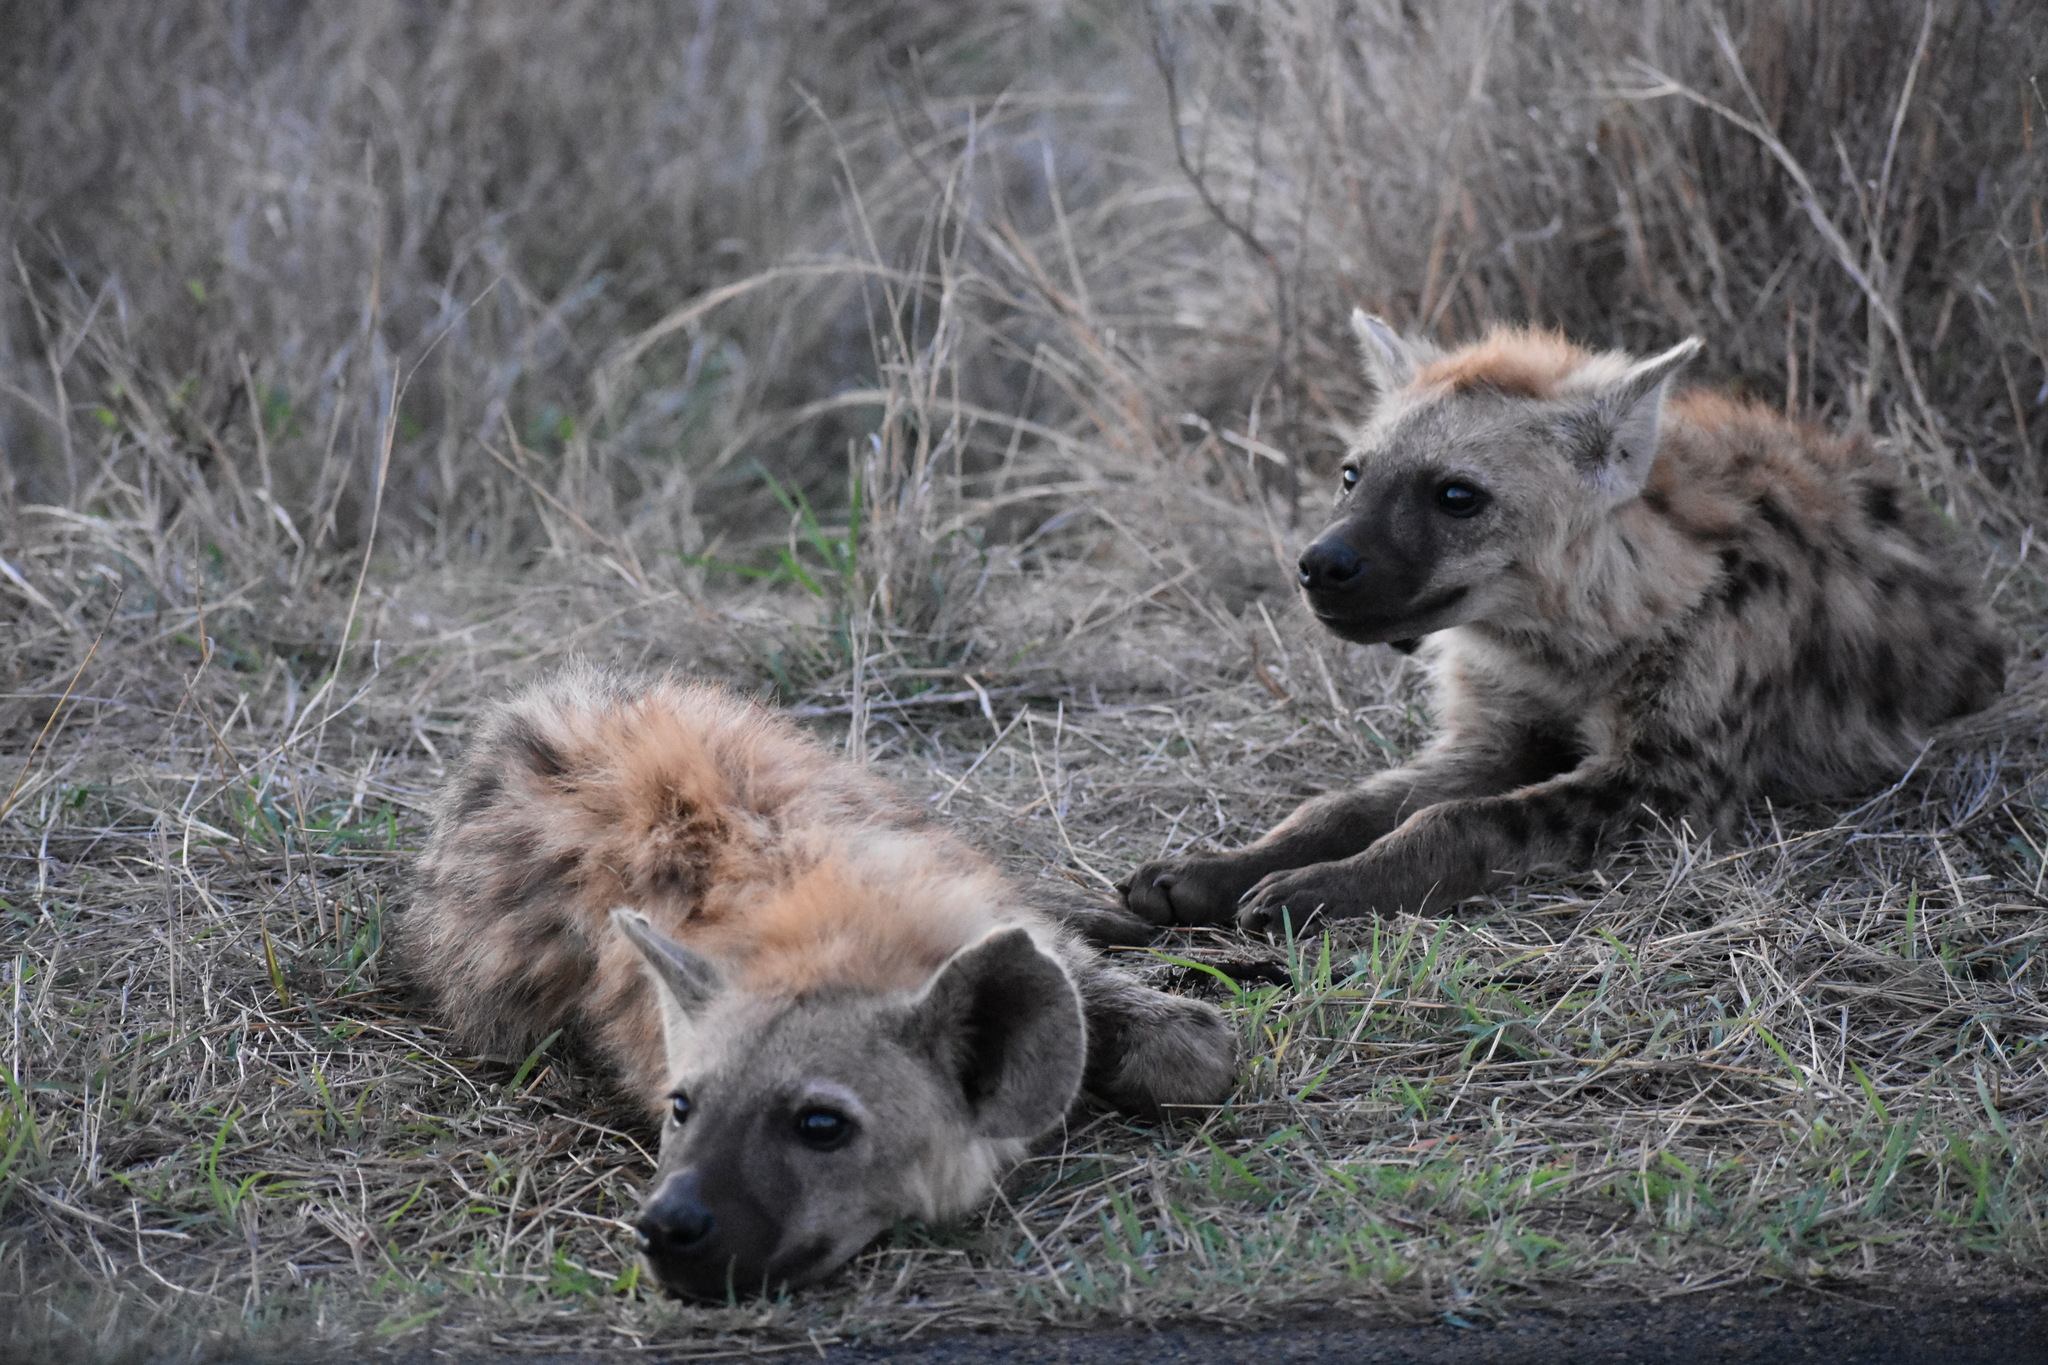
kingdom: Animalia
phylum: Chordata
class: Mammalia
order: Carnivora
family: Hyaenidae
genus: Crocuta
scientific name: Crocuta crocuta
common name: Spotted hyaena
